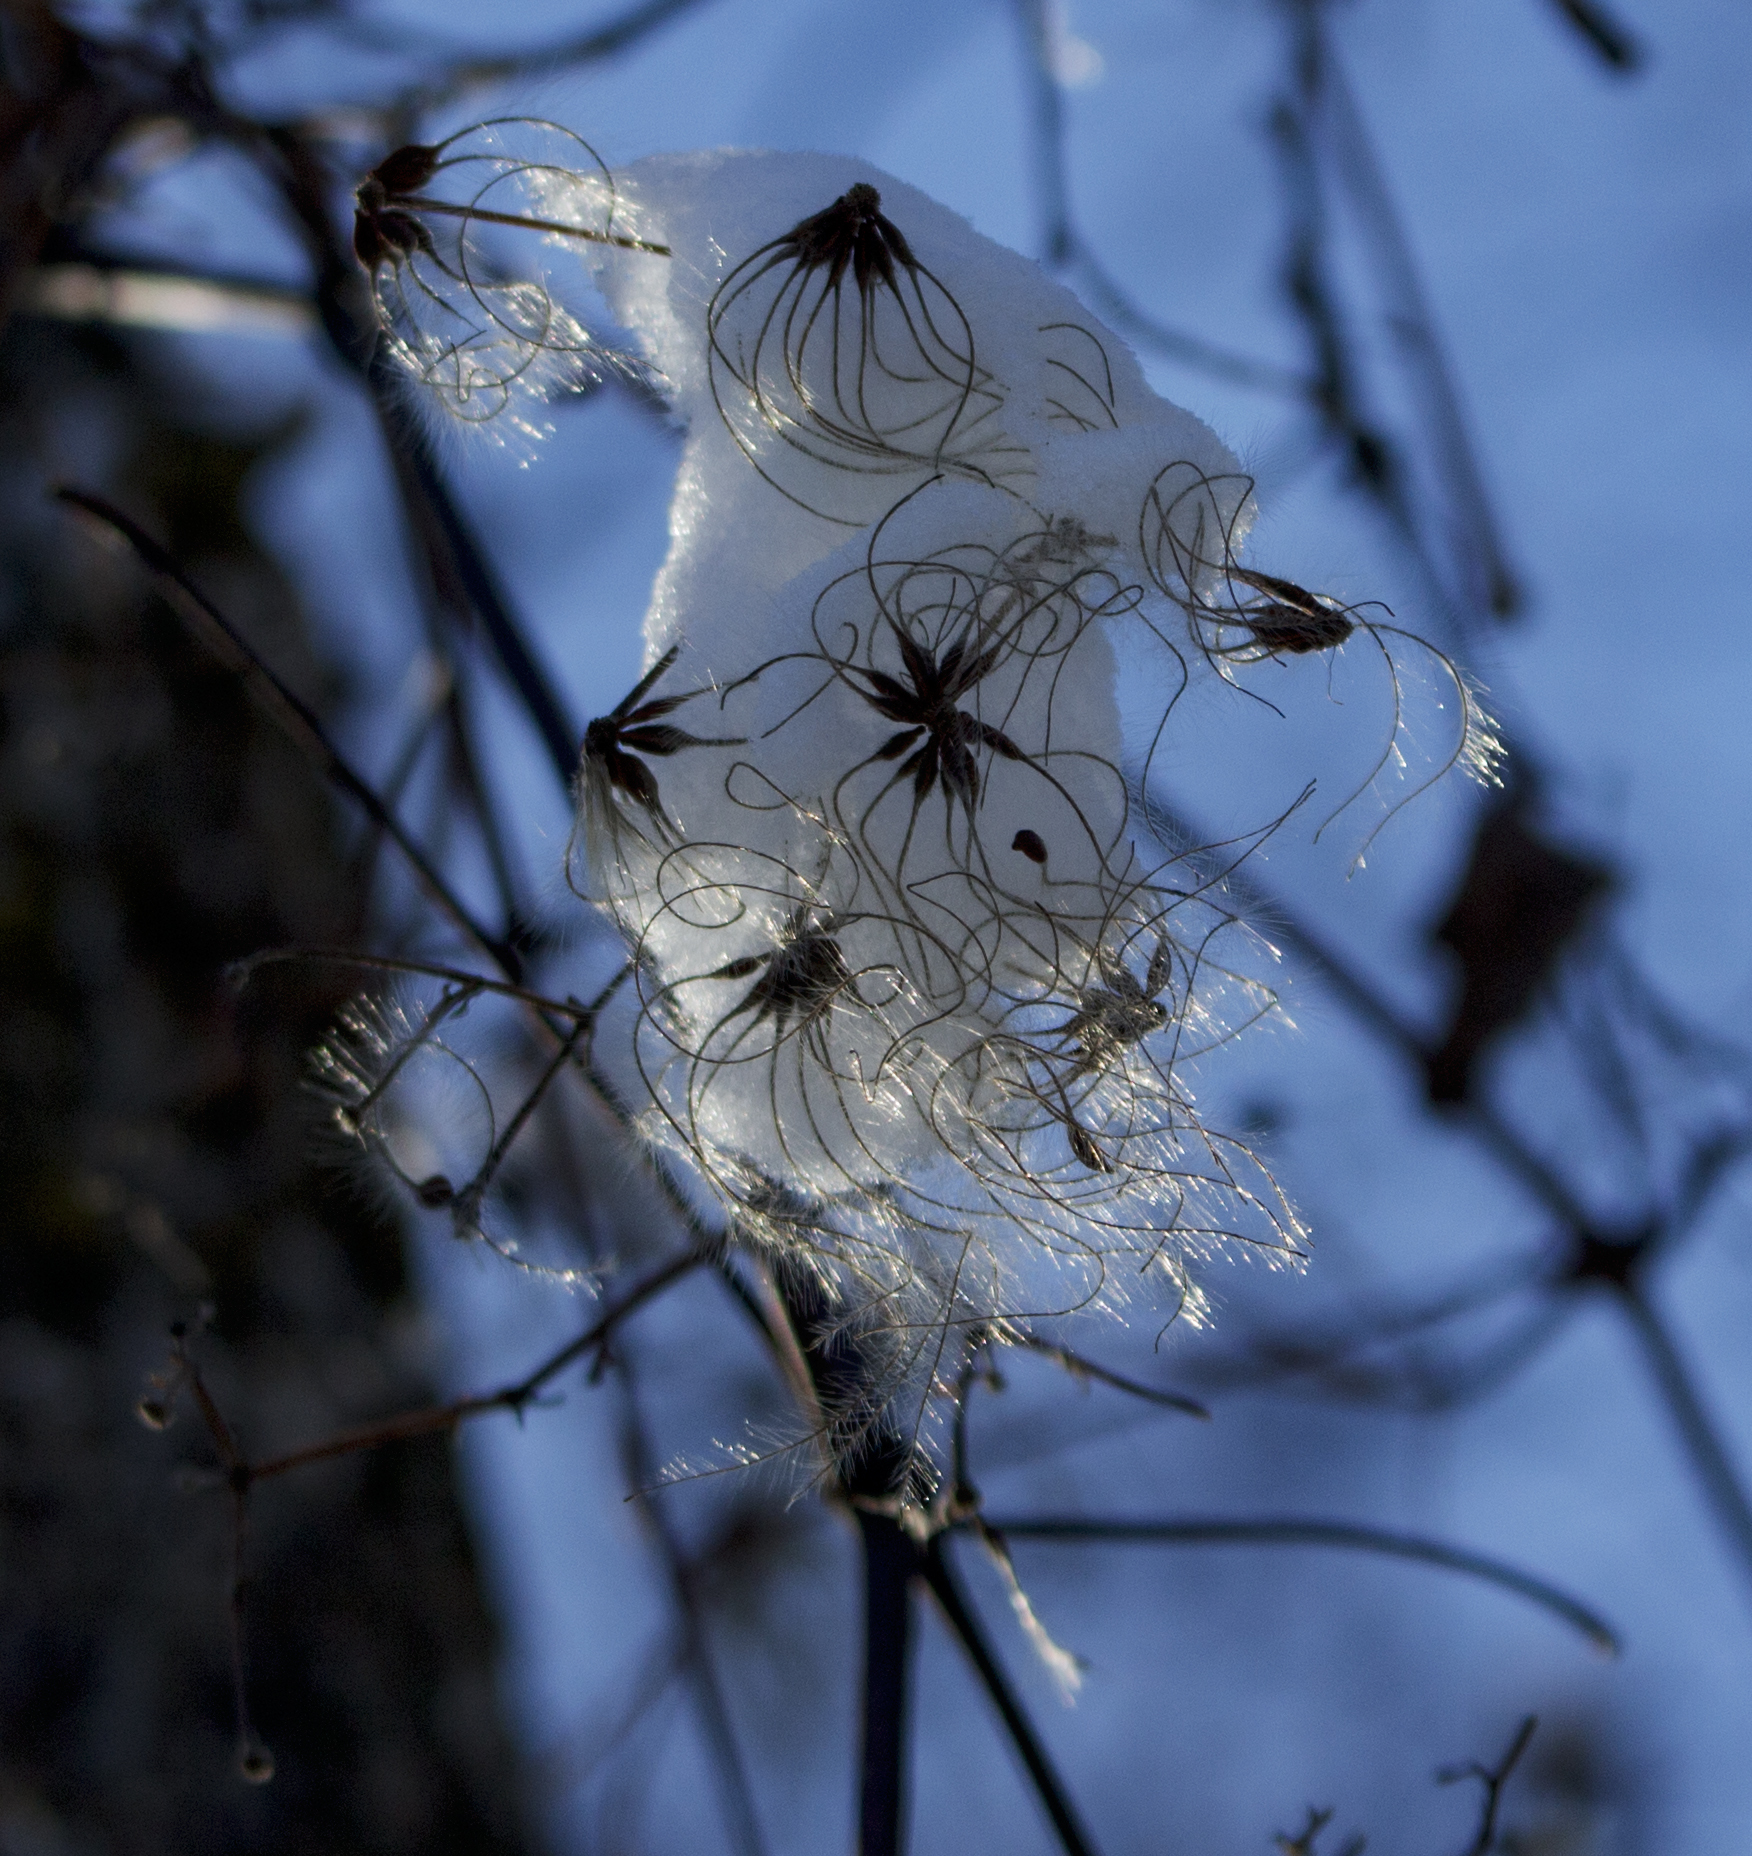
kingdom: Plantae
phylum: Tracheophyta
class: Magnoliopsida
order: Ranunculales
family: Ranunculaceae
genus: Clematis
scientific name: Clematis virginiana
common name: Virgin's-bower
